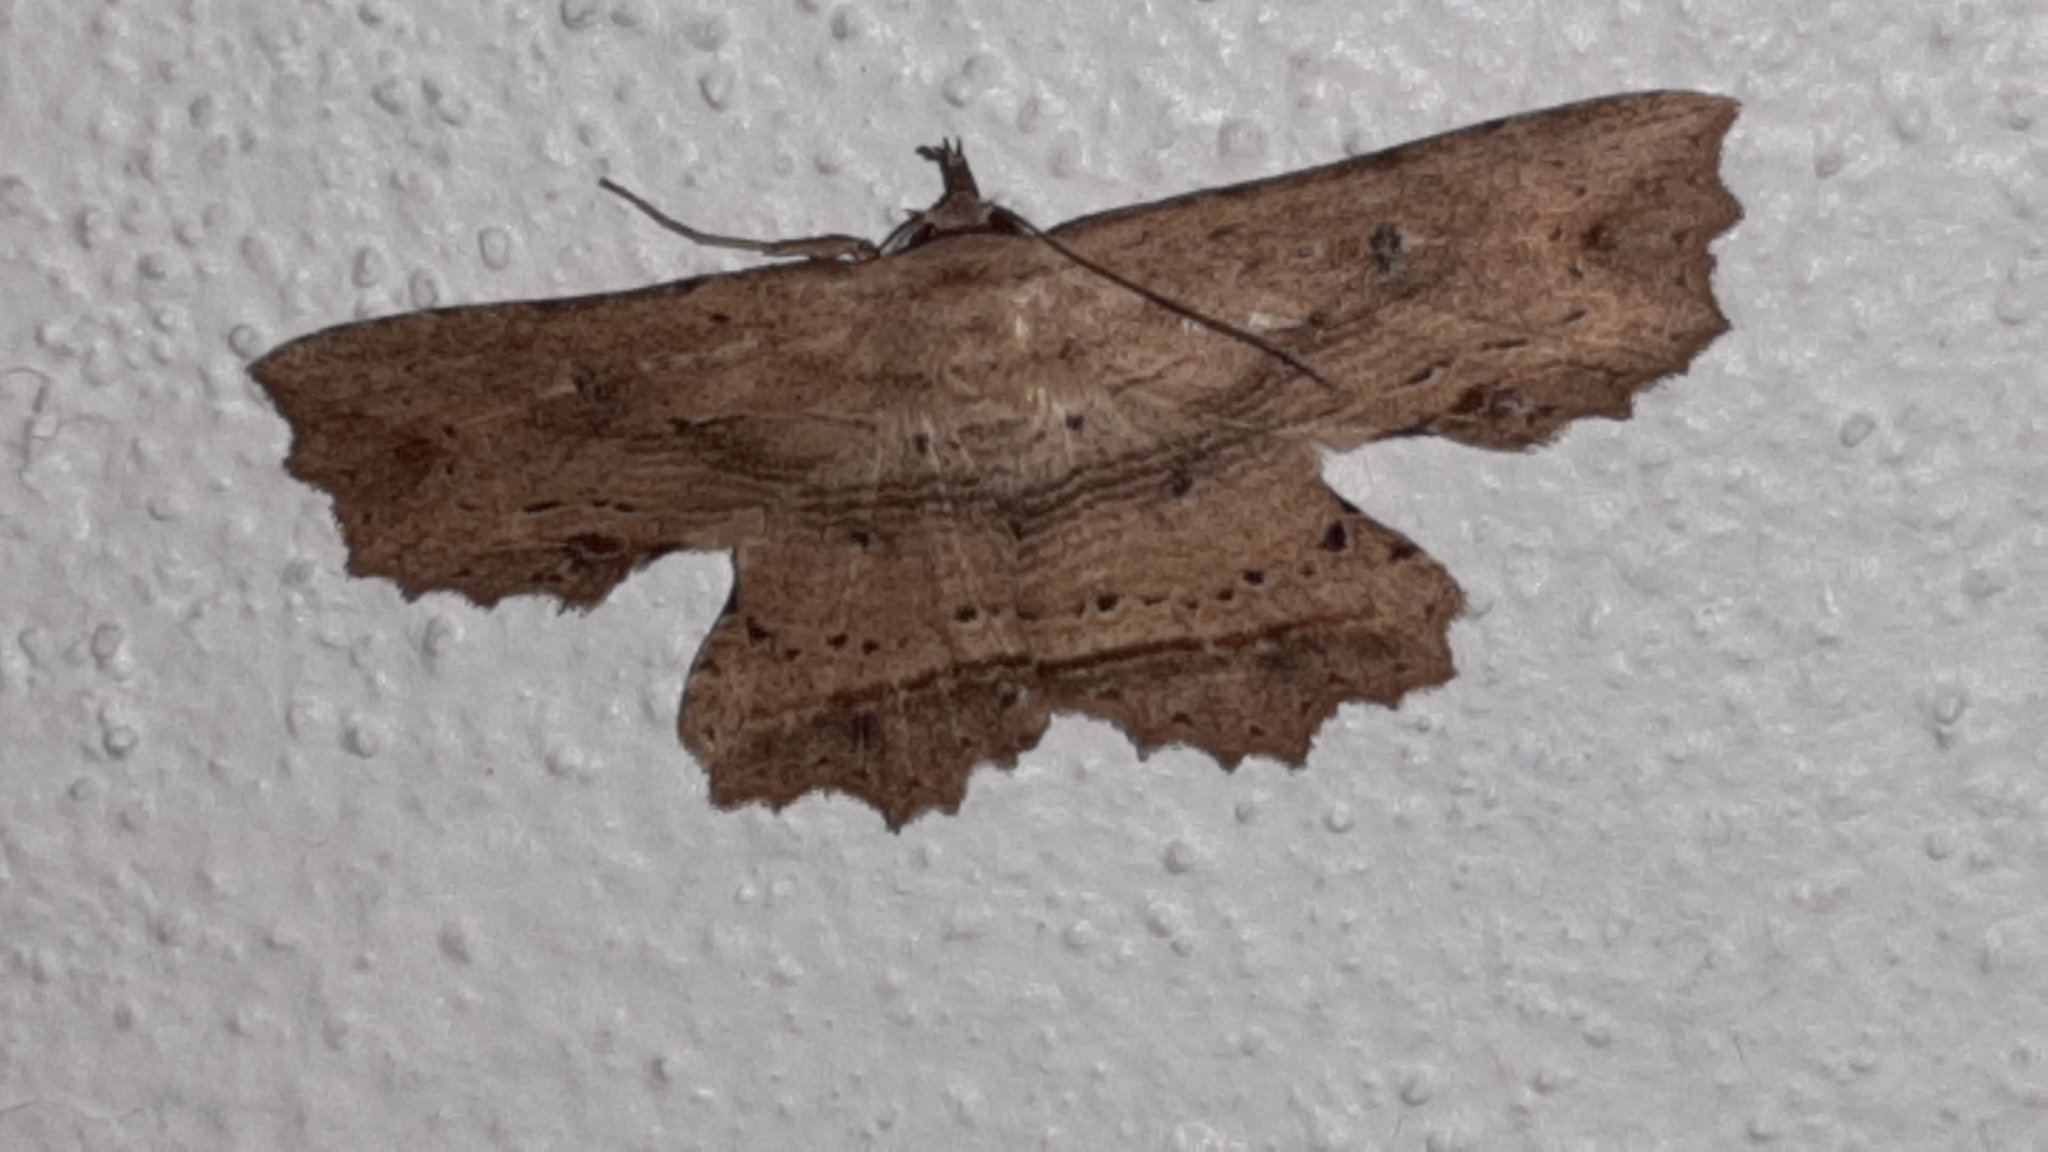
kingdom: Animalia
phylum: Arthropoda
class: Insecta
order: Lepidoptera
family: Erebidae
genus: Oroscopa
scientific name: Oroscopa variegata
